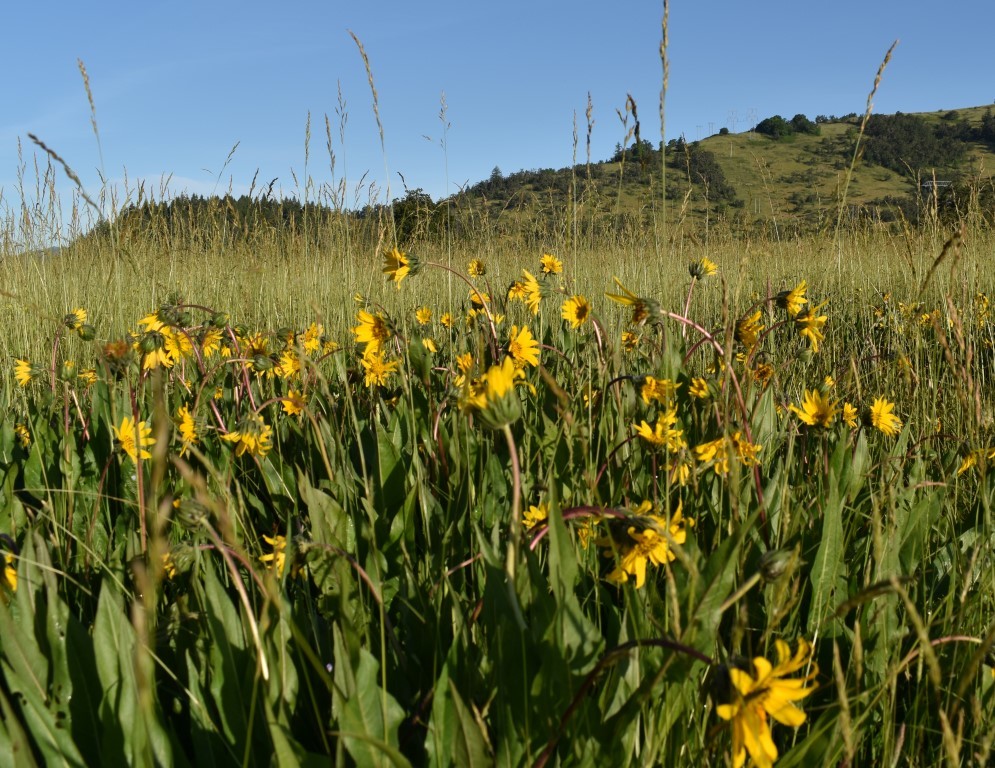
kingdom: Plantae
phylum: Tracheophyta
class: Magnoliopsida
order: Asterales
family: Asteraceae
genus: Wyethia
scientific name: Wyethia angustifolia
